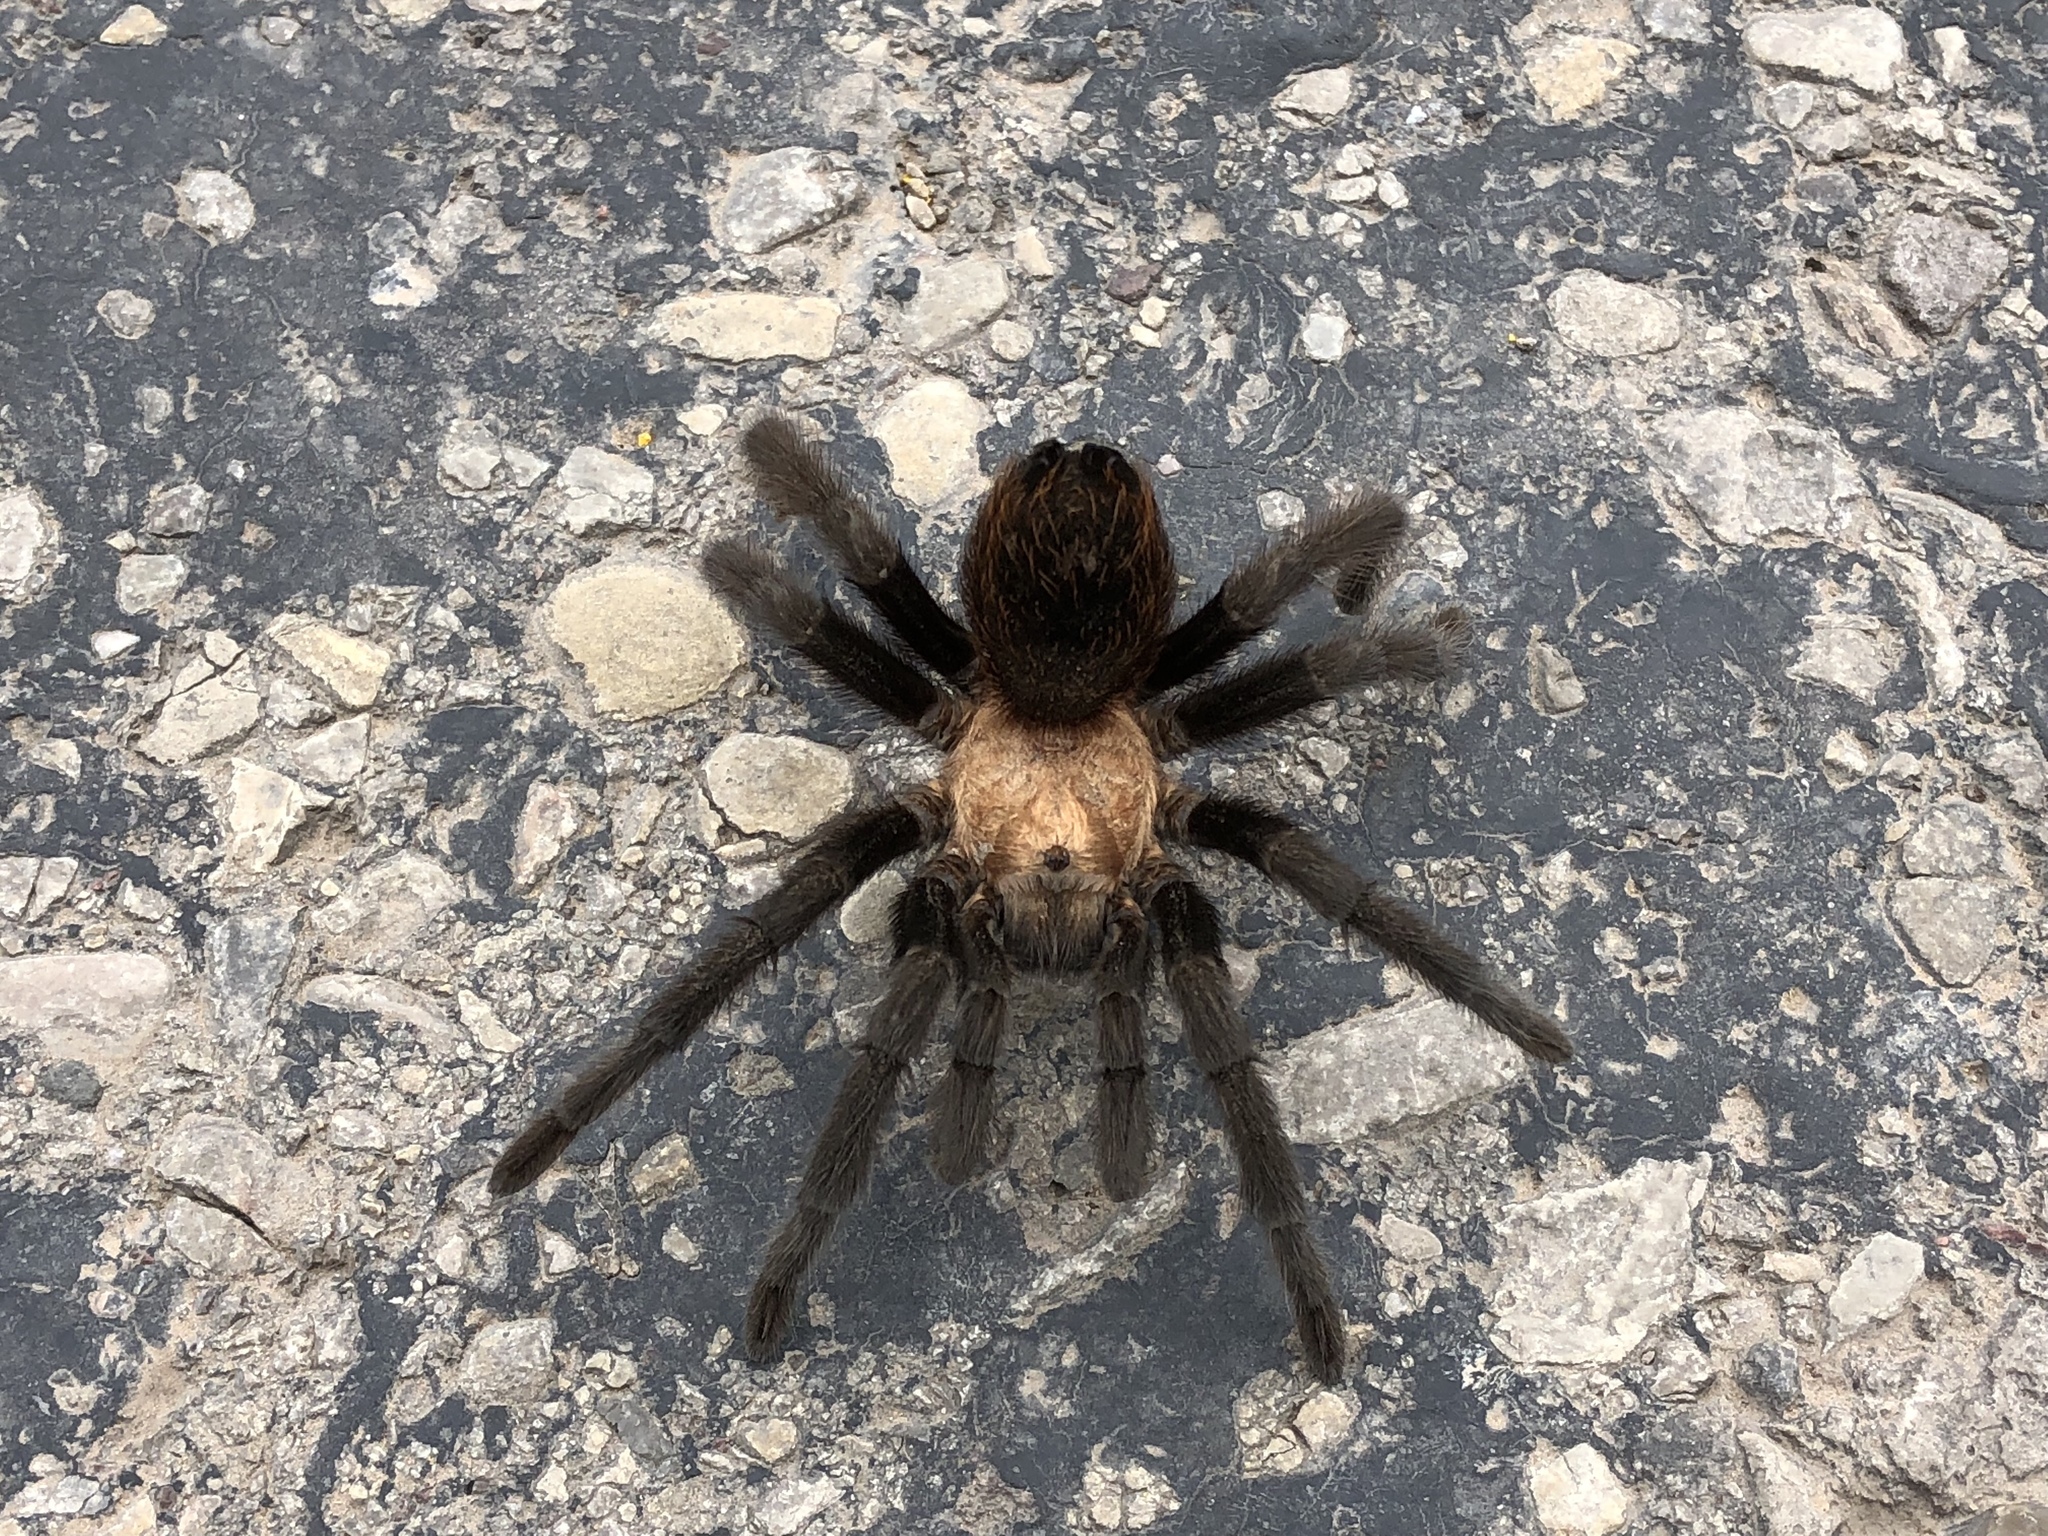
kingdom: Animalia
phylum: Arthropoda
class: Arachnida
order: Araneae
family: Theraphosidae
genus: Aphonopelma
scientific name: Aphonopelma hentzi
